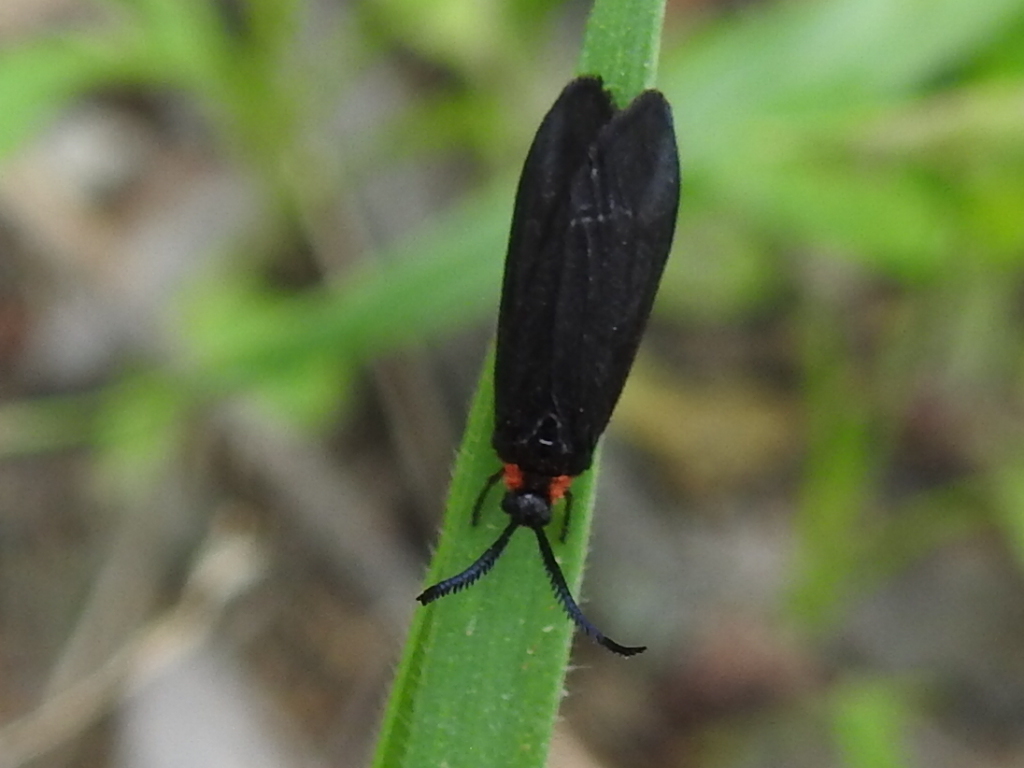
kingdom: Animalia
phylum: Arthropoda
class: Insecta
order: Lepidoptera
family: Zygaenidae
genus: Acoloithus
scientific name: Acoloithus falsarius
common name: Clemens' false skeletonizer
